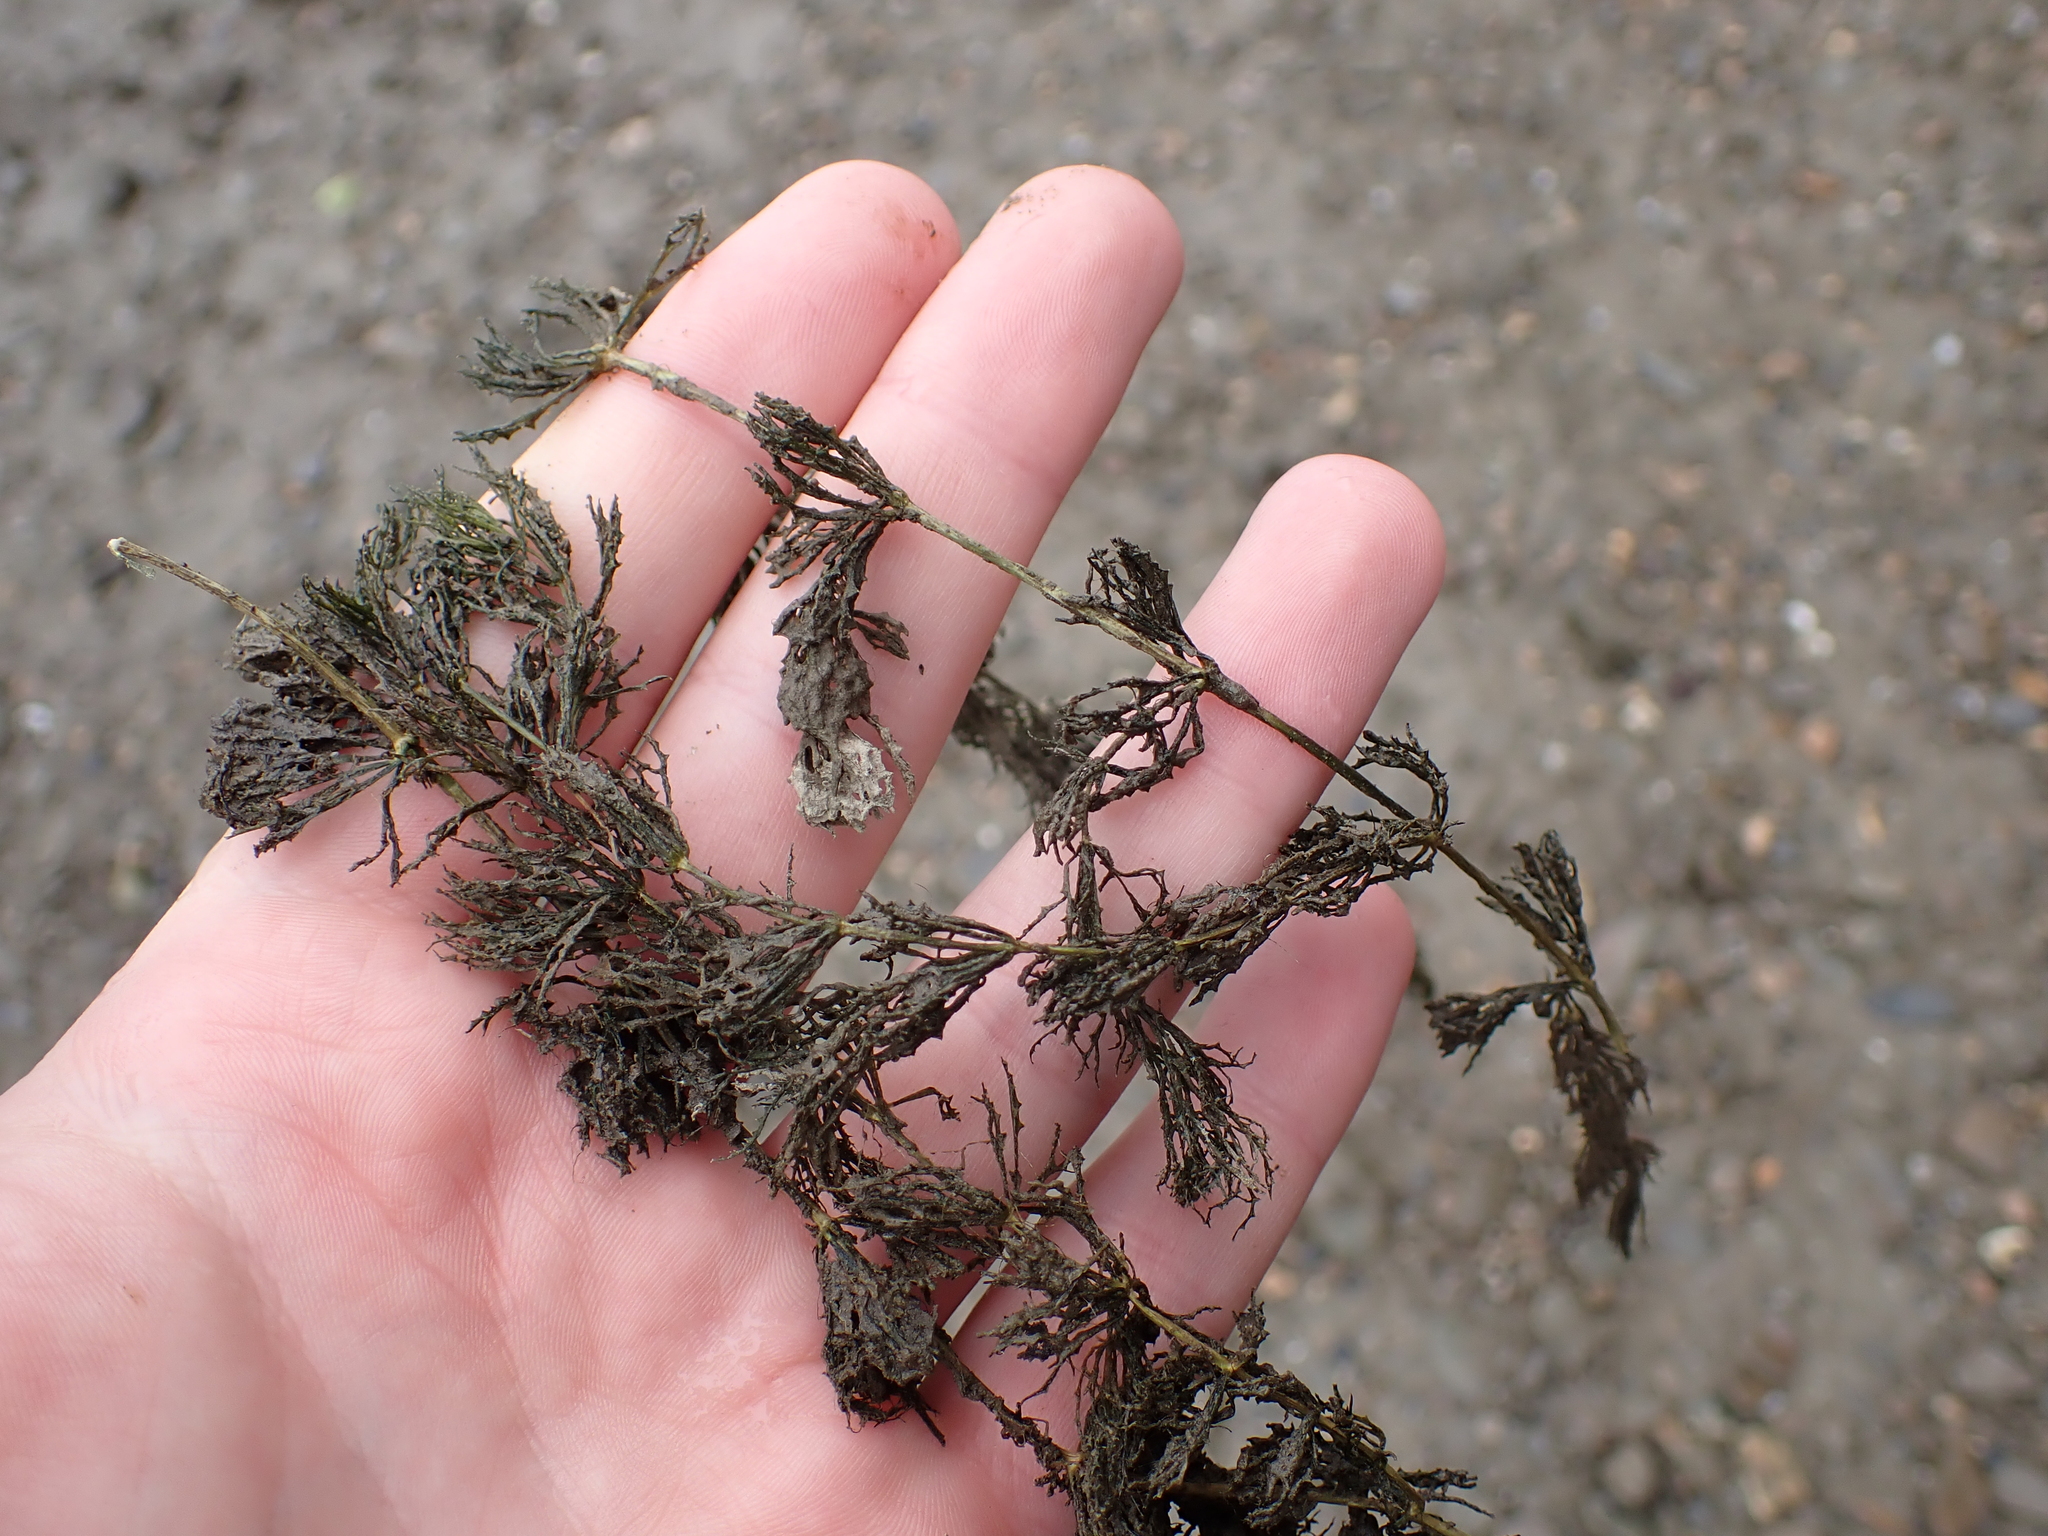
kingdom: Plantae
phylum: Tracheophyta
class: Magnoliopsida
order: Ceratophyllales
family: Ceratophyllaceae
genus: Ceratophyllum
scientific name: Ceratophyllum demersum
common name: Rigid hornwort
